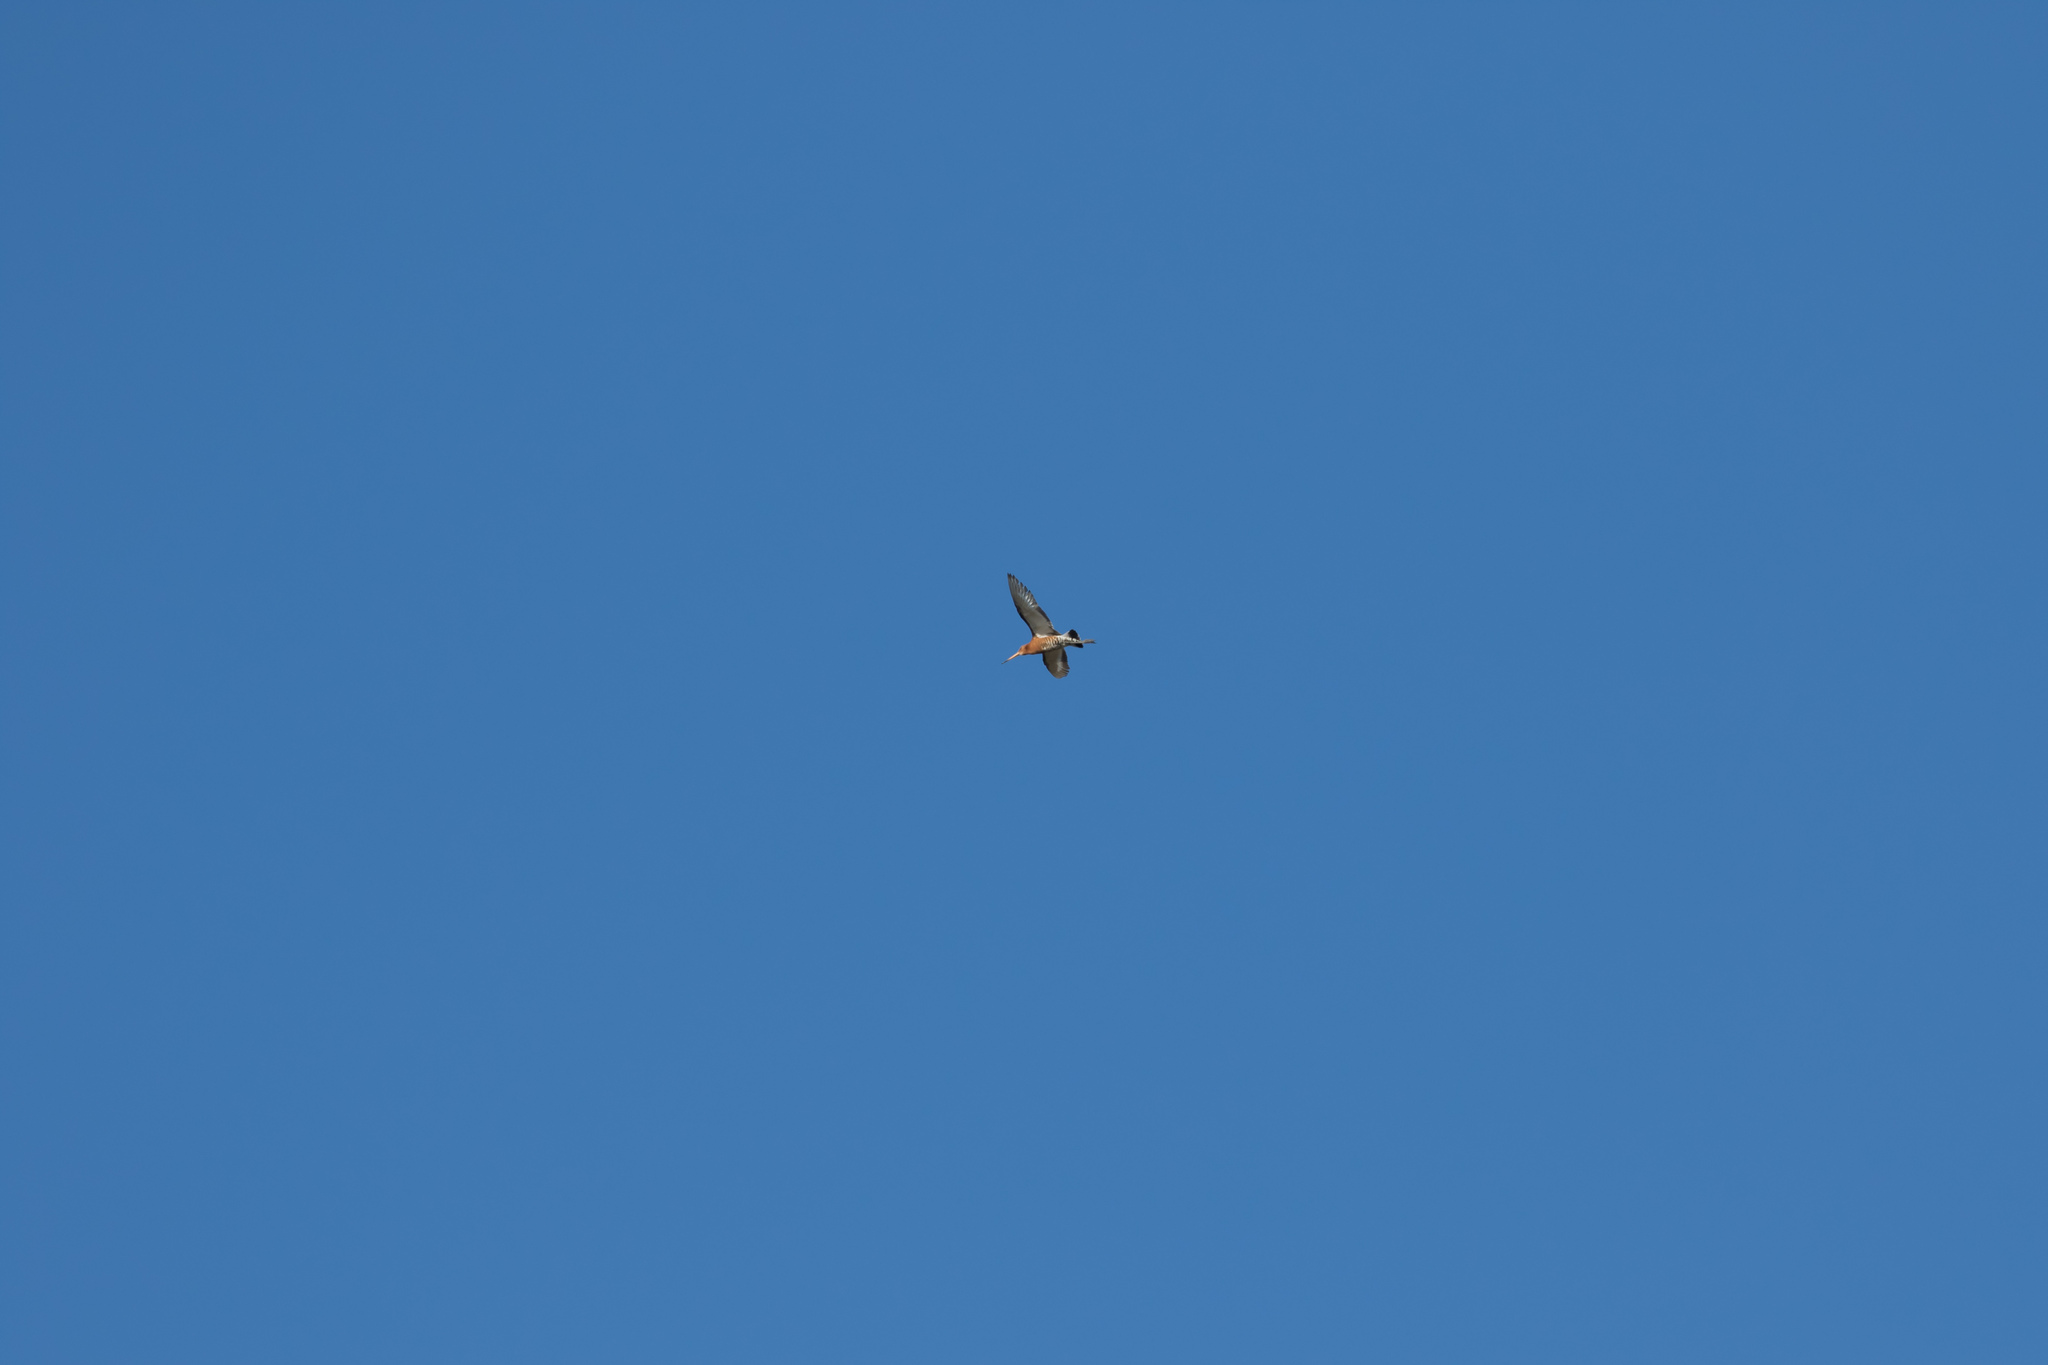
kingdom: Animalia
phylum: Chordata
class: Aves
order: Charadriiformes
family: Scolopacidae
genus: Limosa
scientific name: Limosa limosa
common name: Black-tailed godwit
